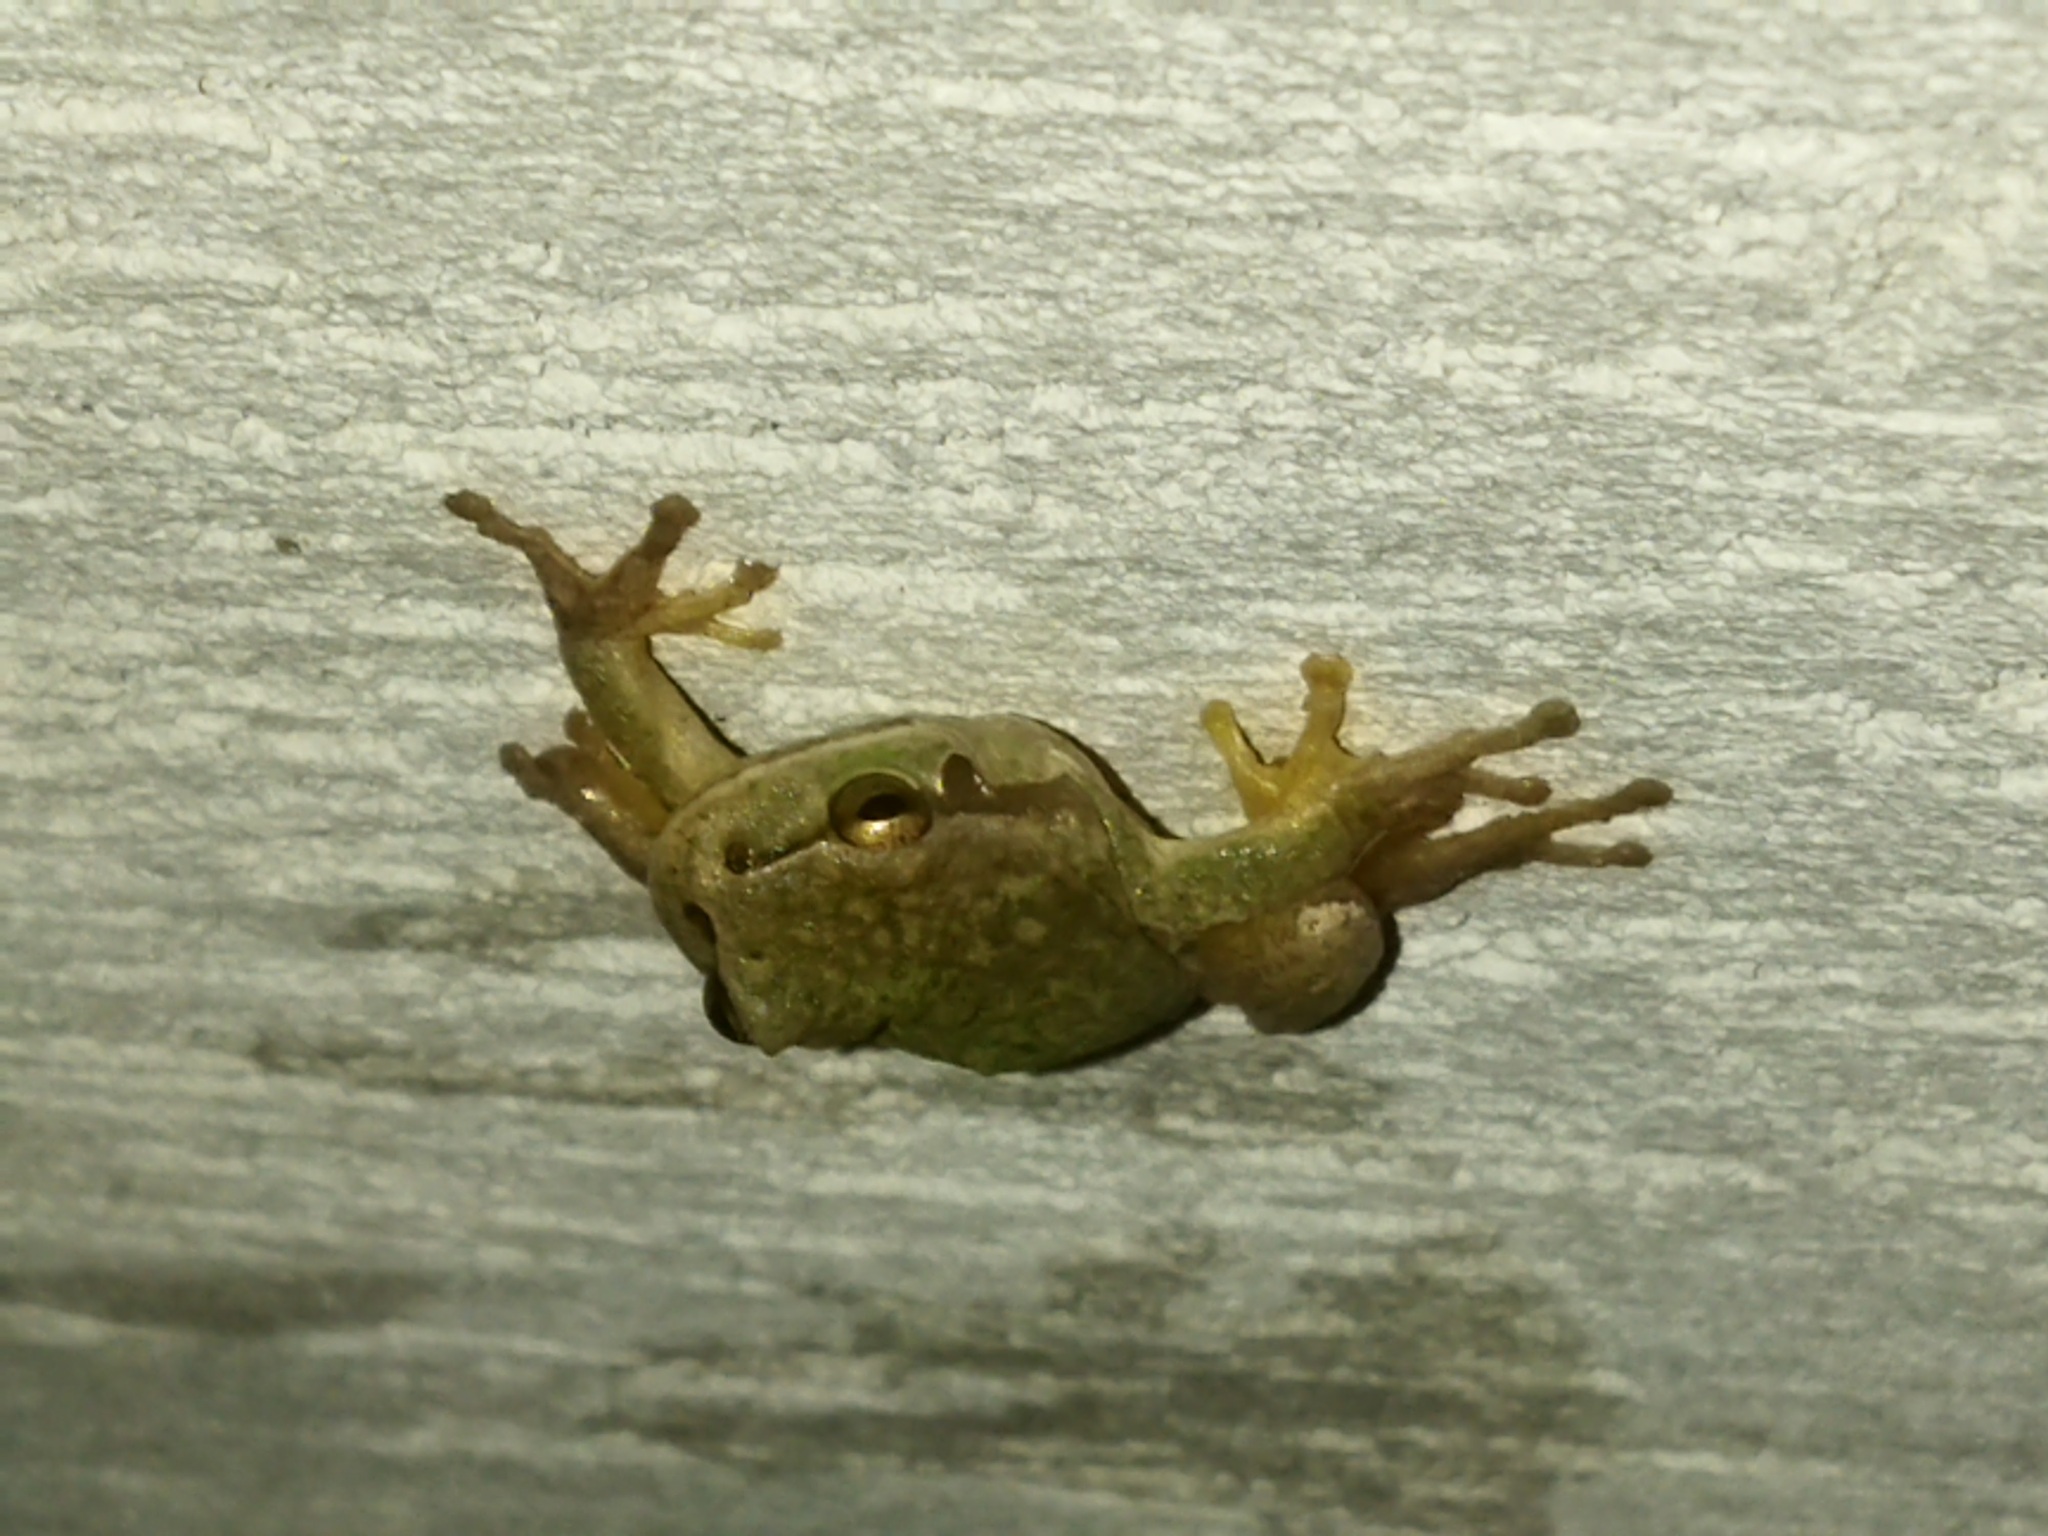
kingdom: Animalia
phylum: Chordata
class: Amphibia
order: Anura
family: Hylidae
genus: Hyla
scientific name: Hyla orientalis
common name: Caucasian treefrog
